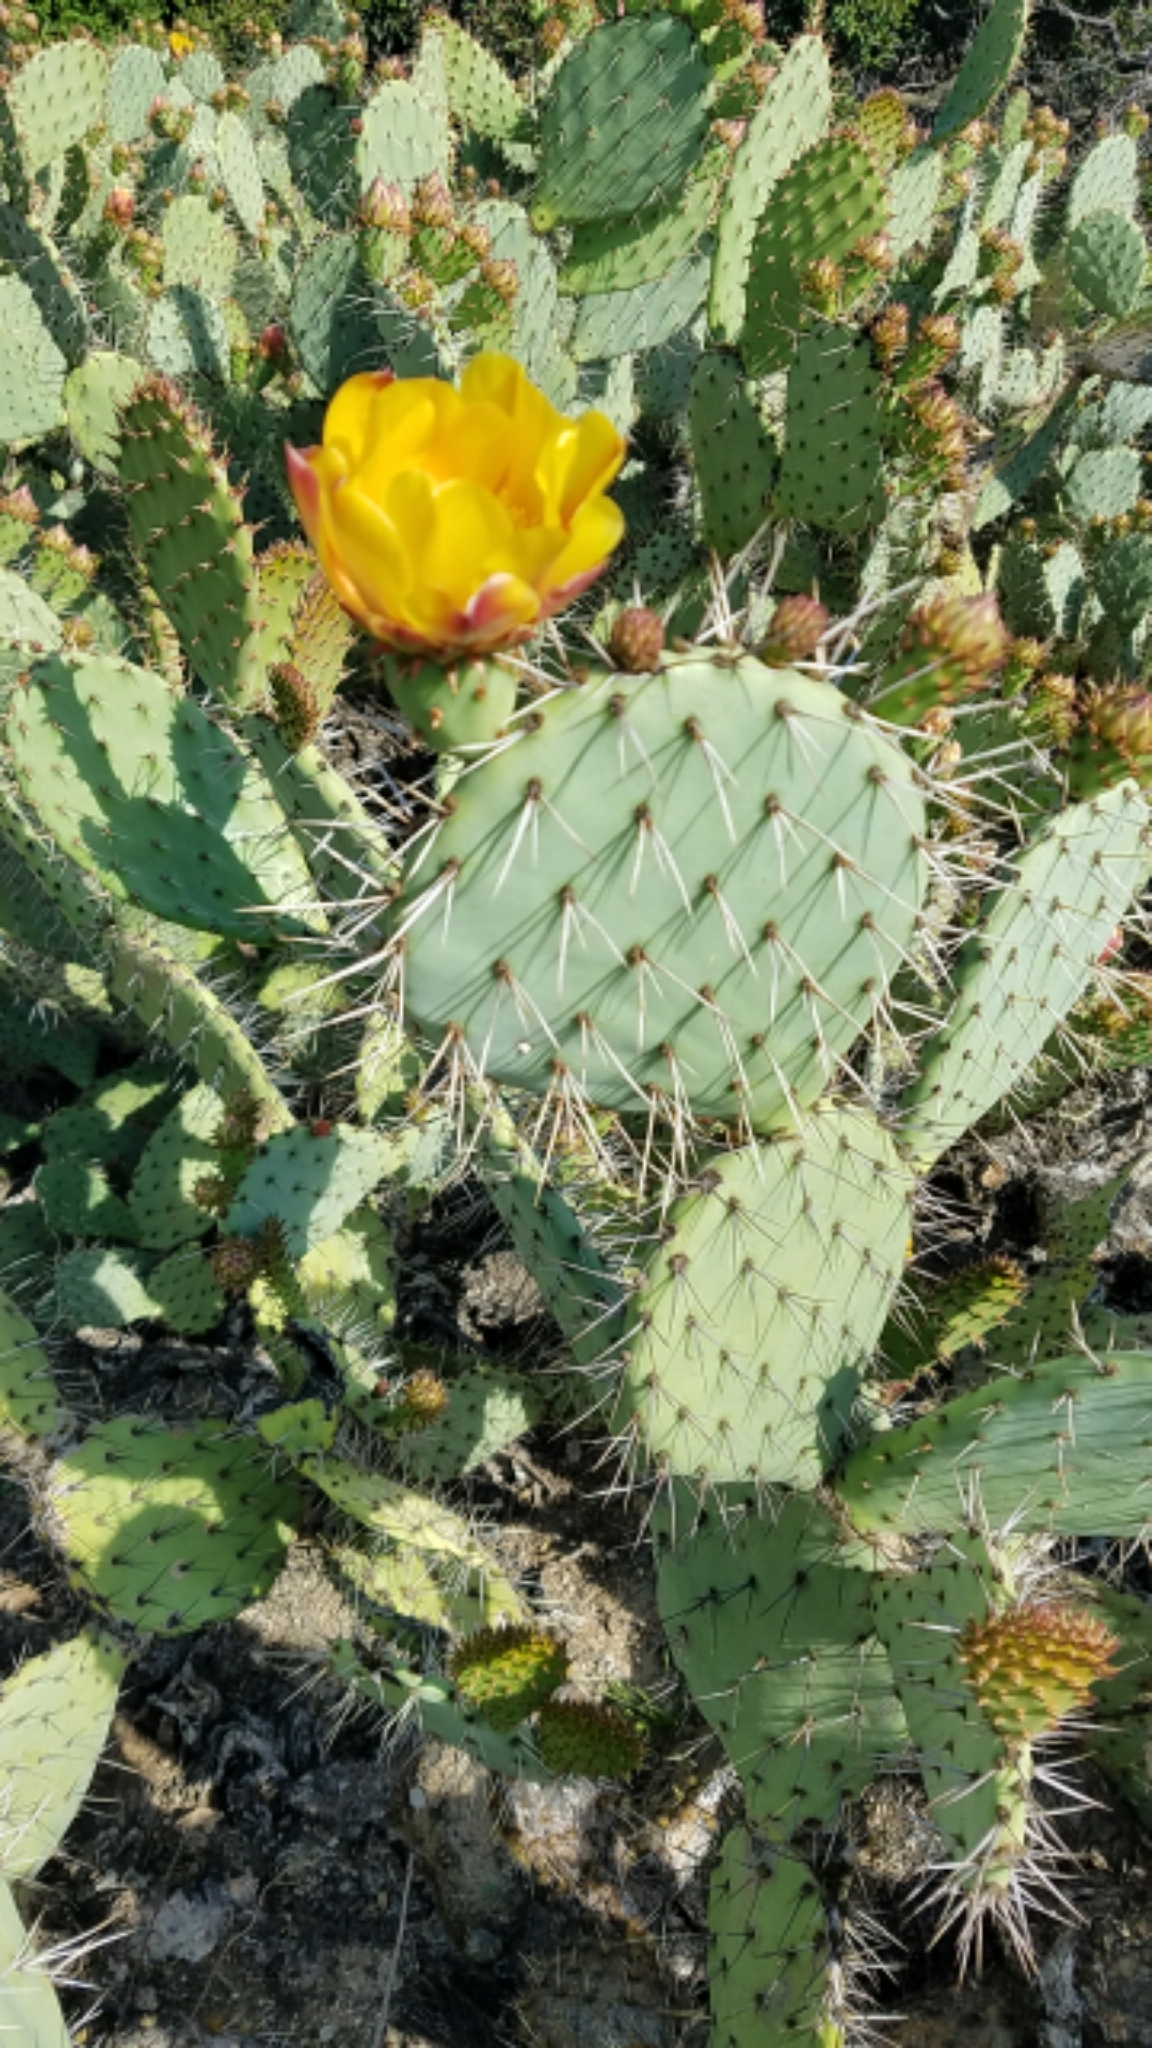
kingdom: Plantae
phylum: Tracheophyta
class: Magnoliopsida
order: Caryophyllales
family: Cactaceae
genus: Opuntia
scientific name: Opuntia
